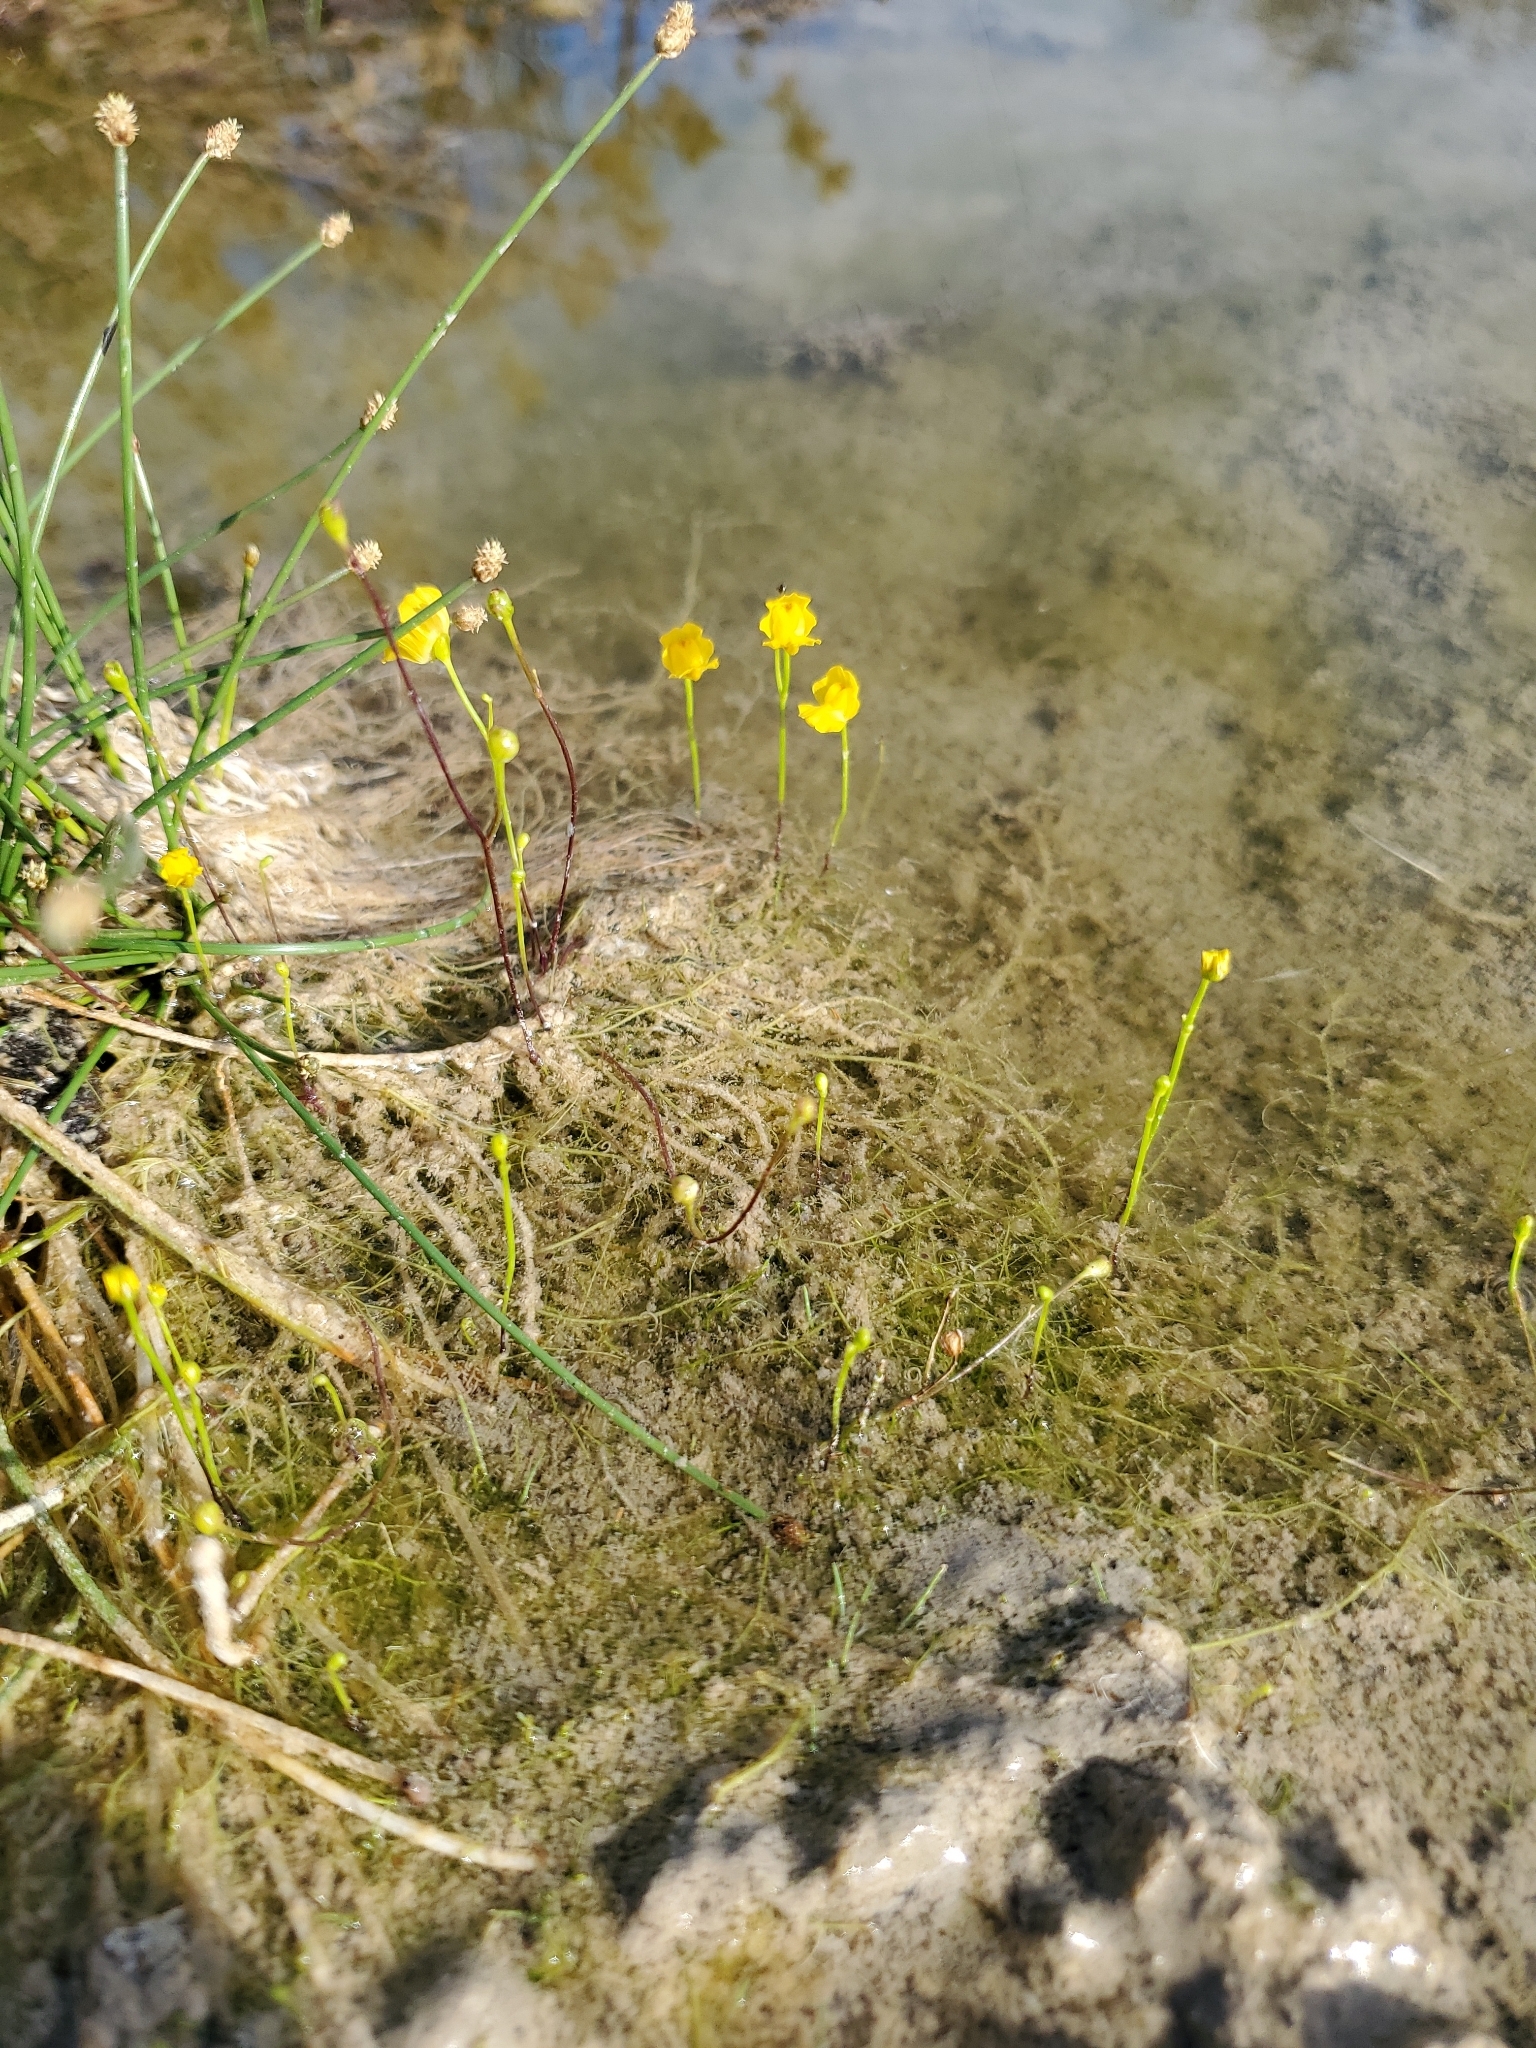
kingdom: Plantae
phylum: Tracheophyta
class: Magnoliopsida
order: Lamiales
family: Lentibulariaceae
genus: Utricularia
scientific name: Utricularia gibba
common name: Humped bladderwort
